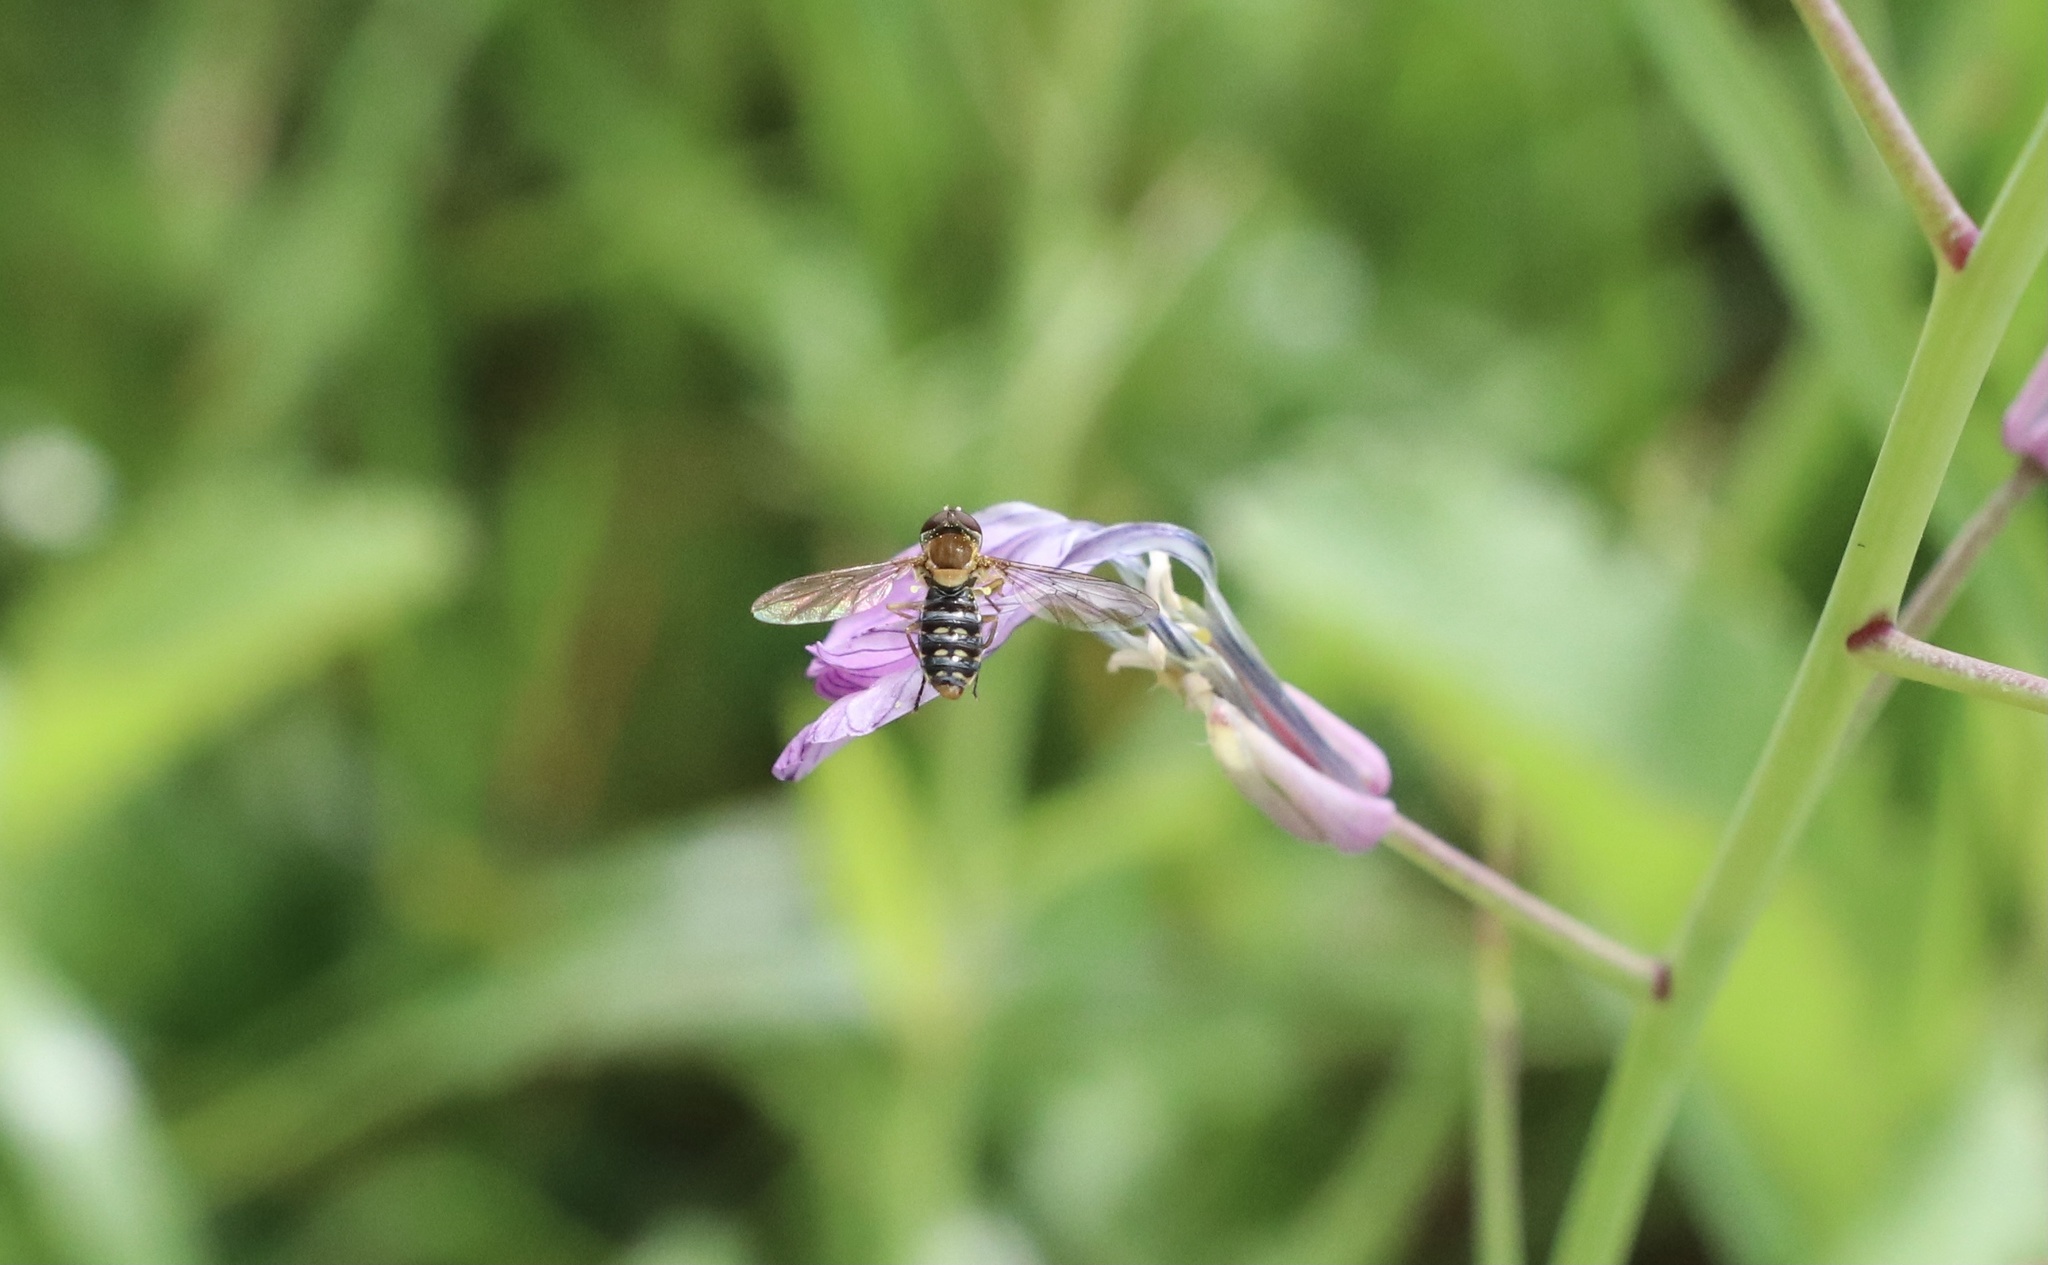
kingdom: Animalia
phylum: Arthropoda
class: Insecta
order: Diptera
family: Syrphidae
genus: Toxomerus
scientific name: Toxomerus vertebratus
